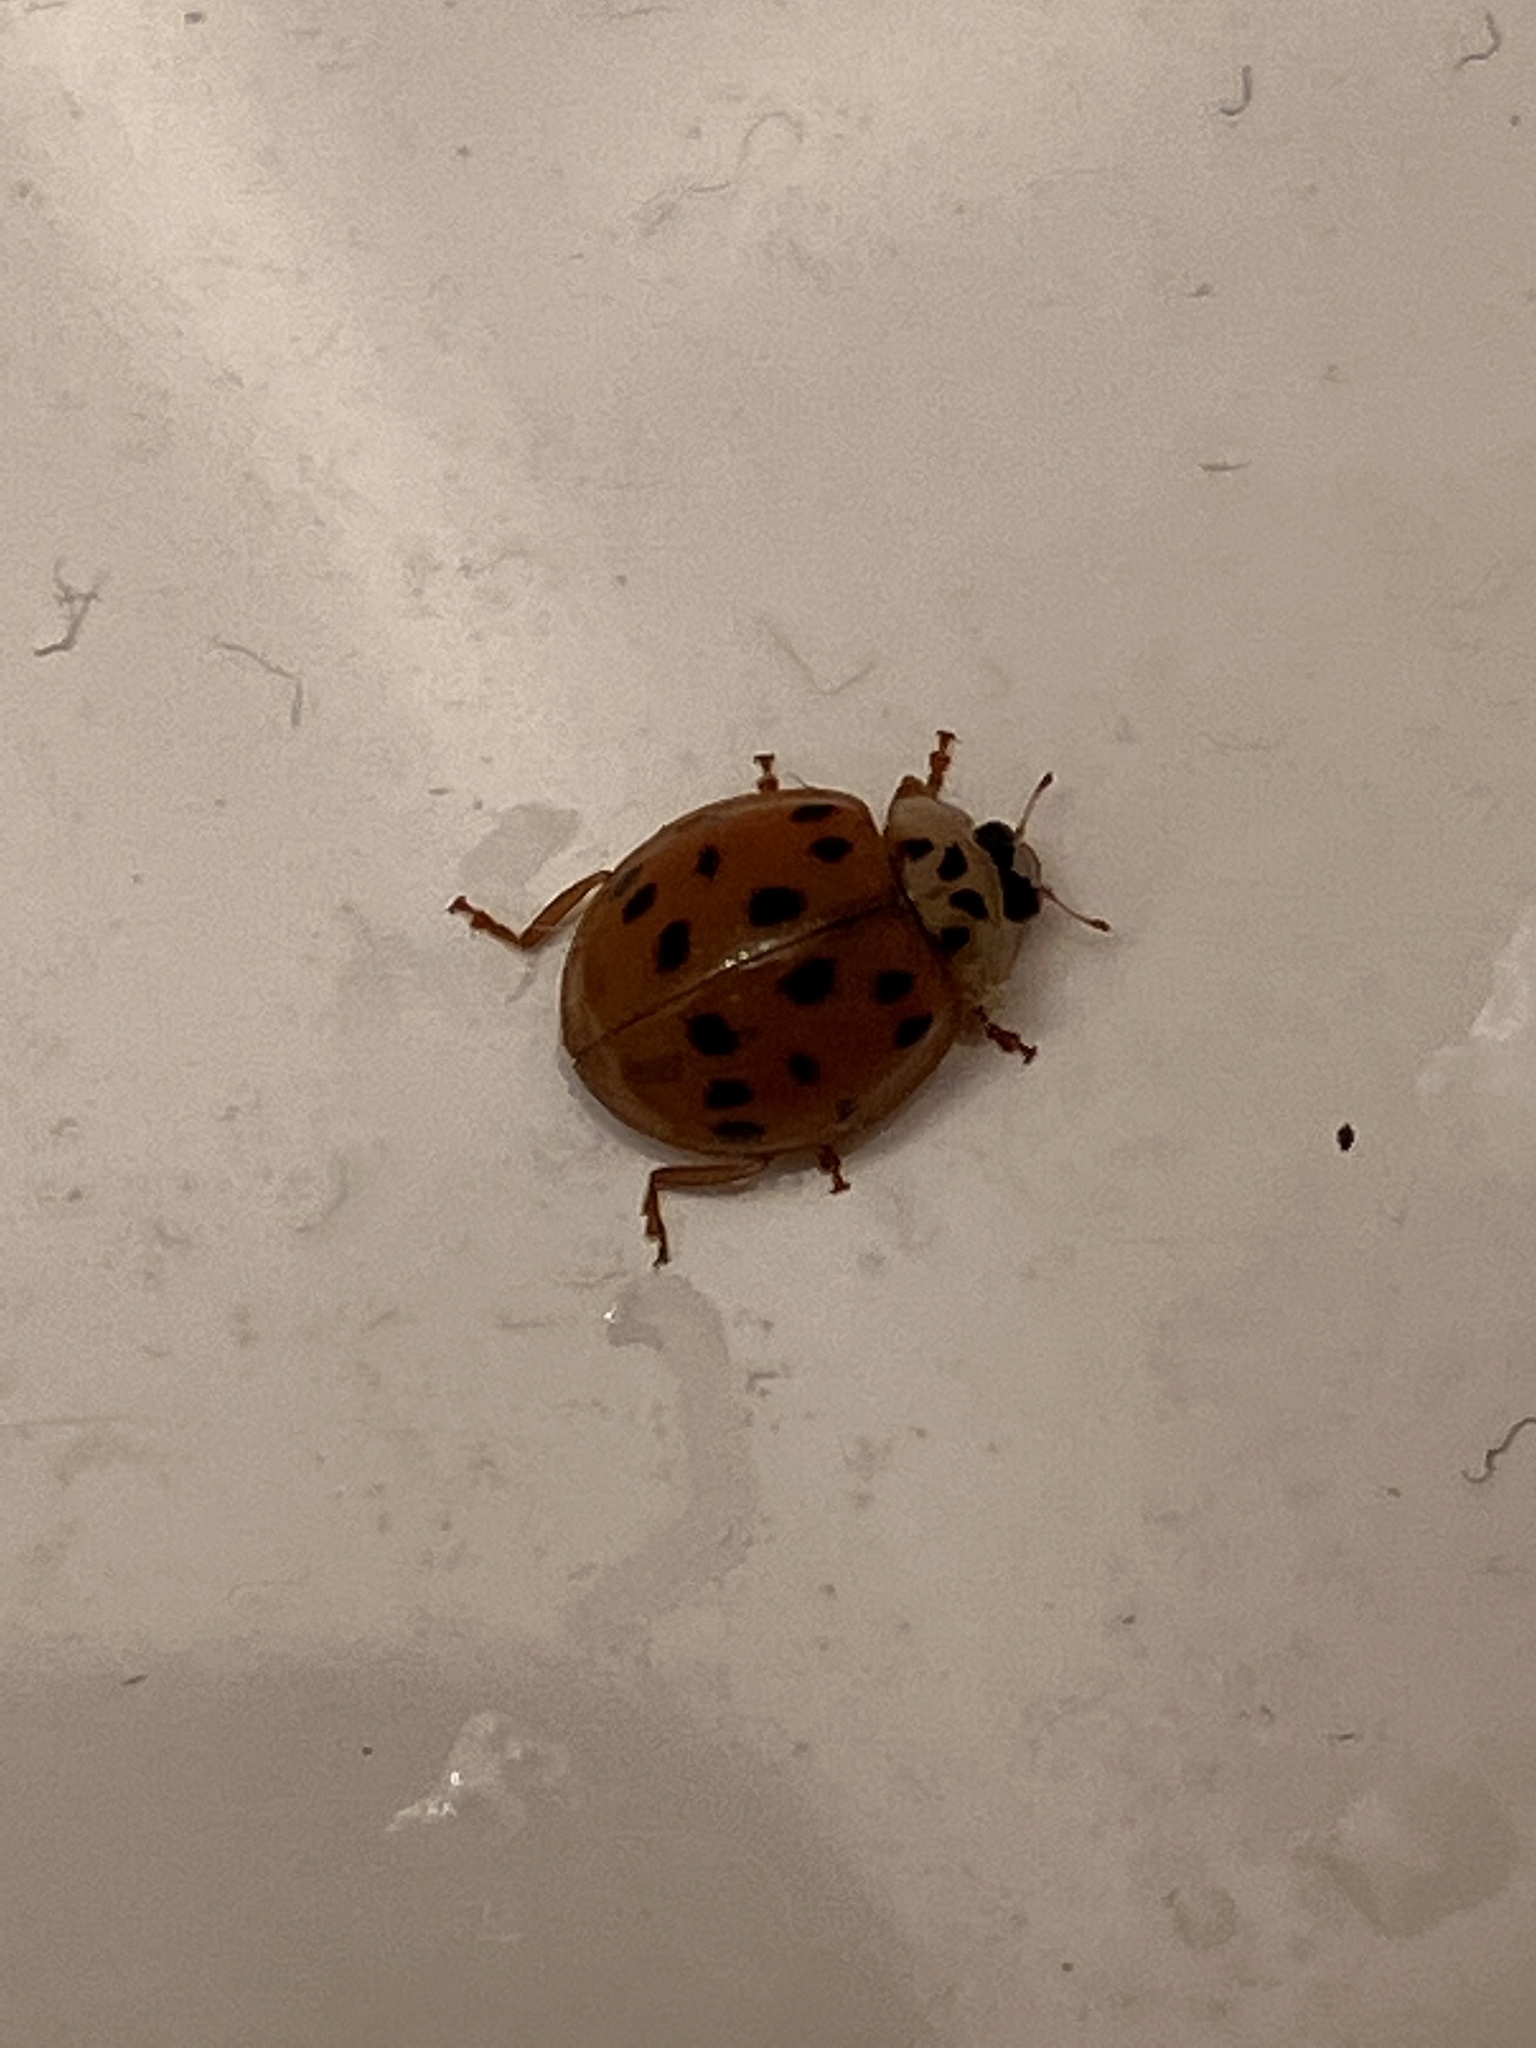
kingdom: Animalia
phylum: Arthropoda
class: Insecta
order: Coleoptera
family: Coccinellidae
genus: Harmonia
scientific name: Harmonia axyridis
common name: Harlequin ladybird
